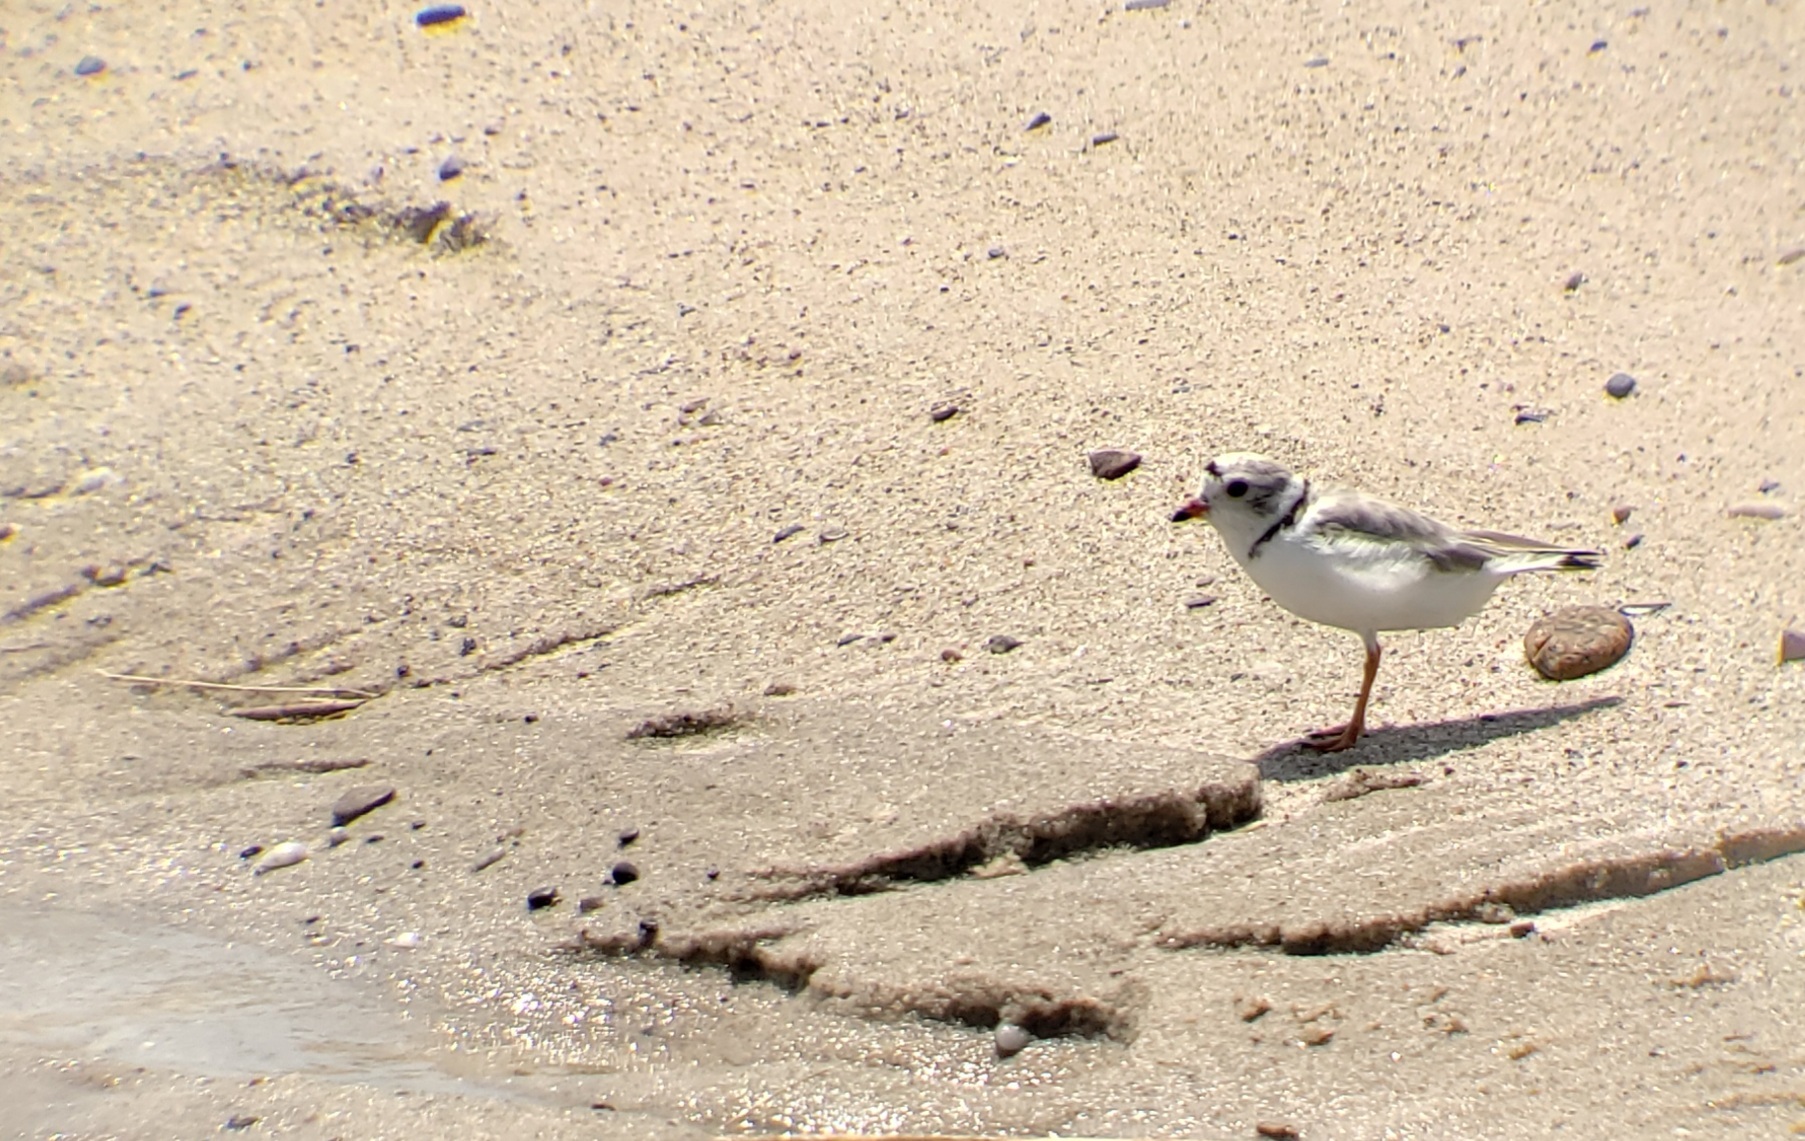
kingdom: Animalia
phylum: Chordata
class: Aves
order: Charadriiformes
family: Charadriidae
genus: Charadrius
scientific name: Charadrius melodus
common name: Piping plover
